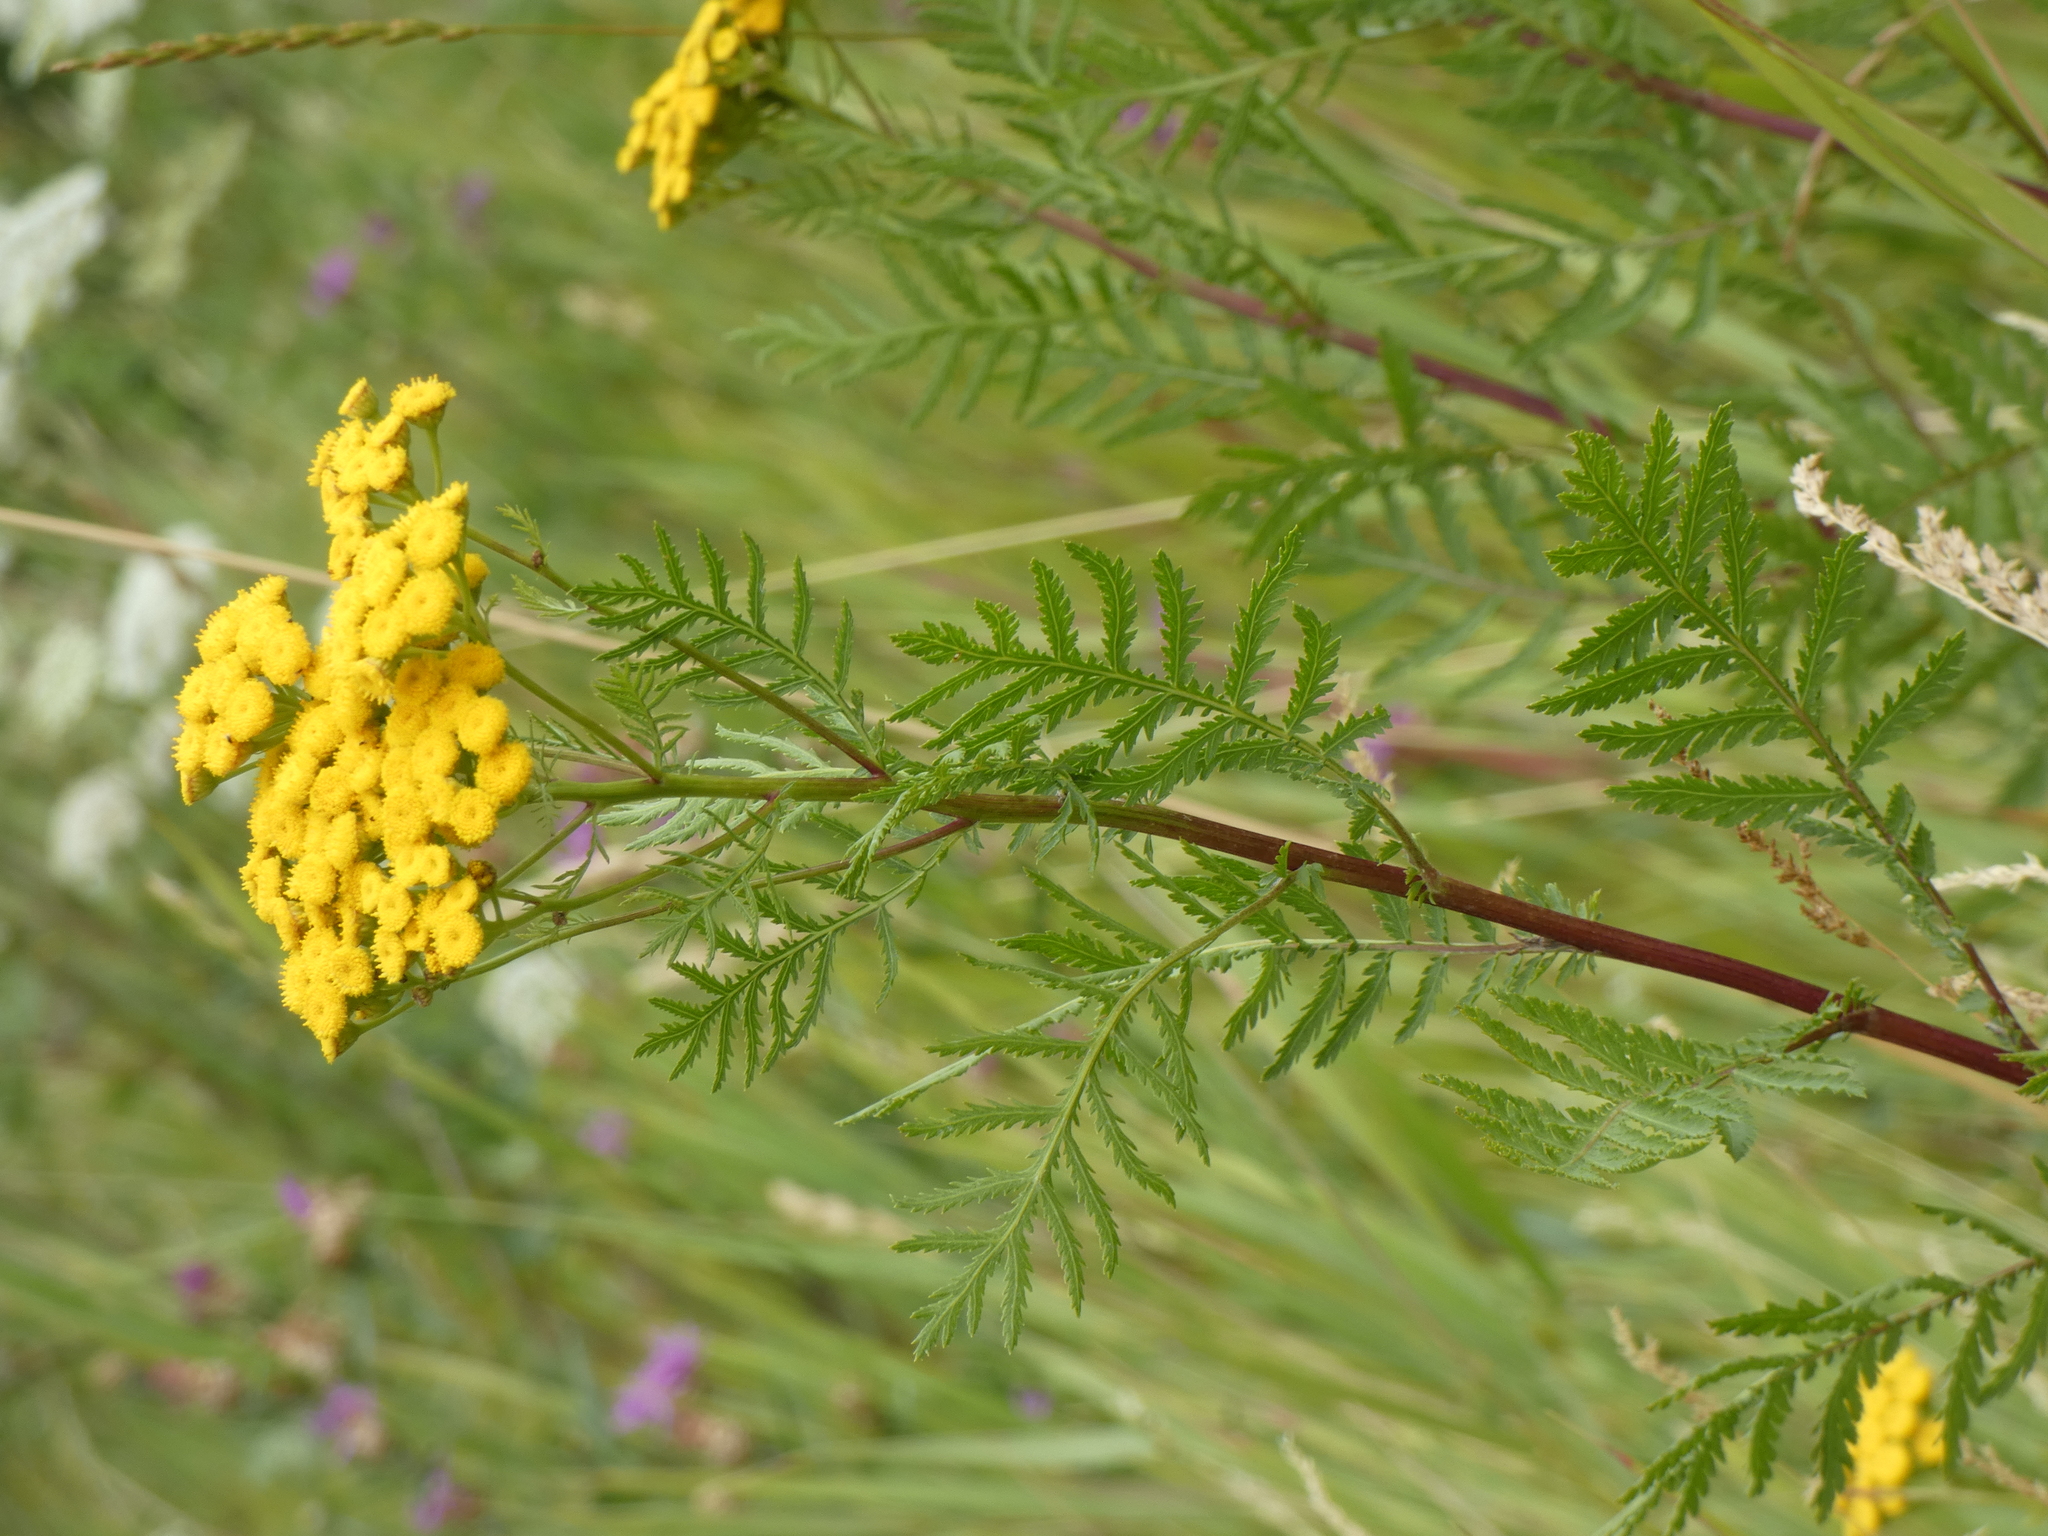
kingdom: Plantae
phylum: Tracheophyta
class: Magnoliopsida
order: Asterales
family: Asteraceae
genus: Tanacetum
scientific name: Tanacetum vulgare
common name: Common tansy
